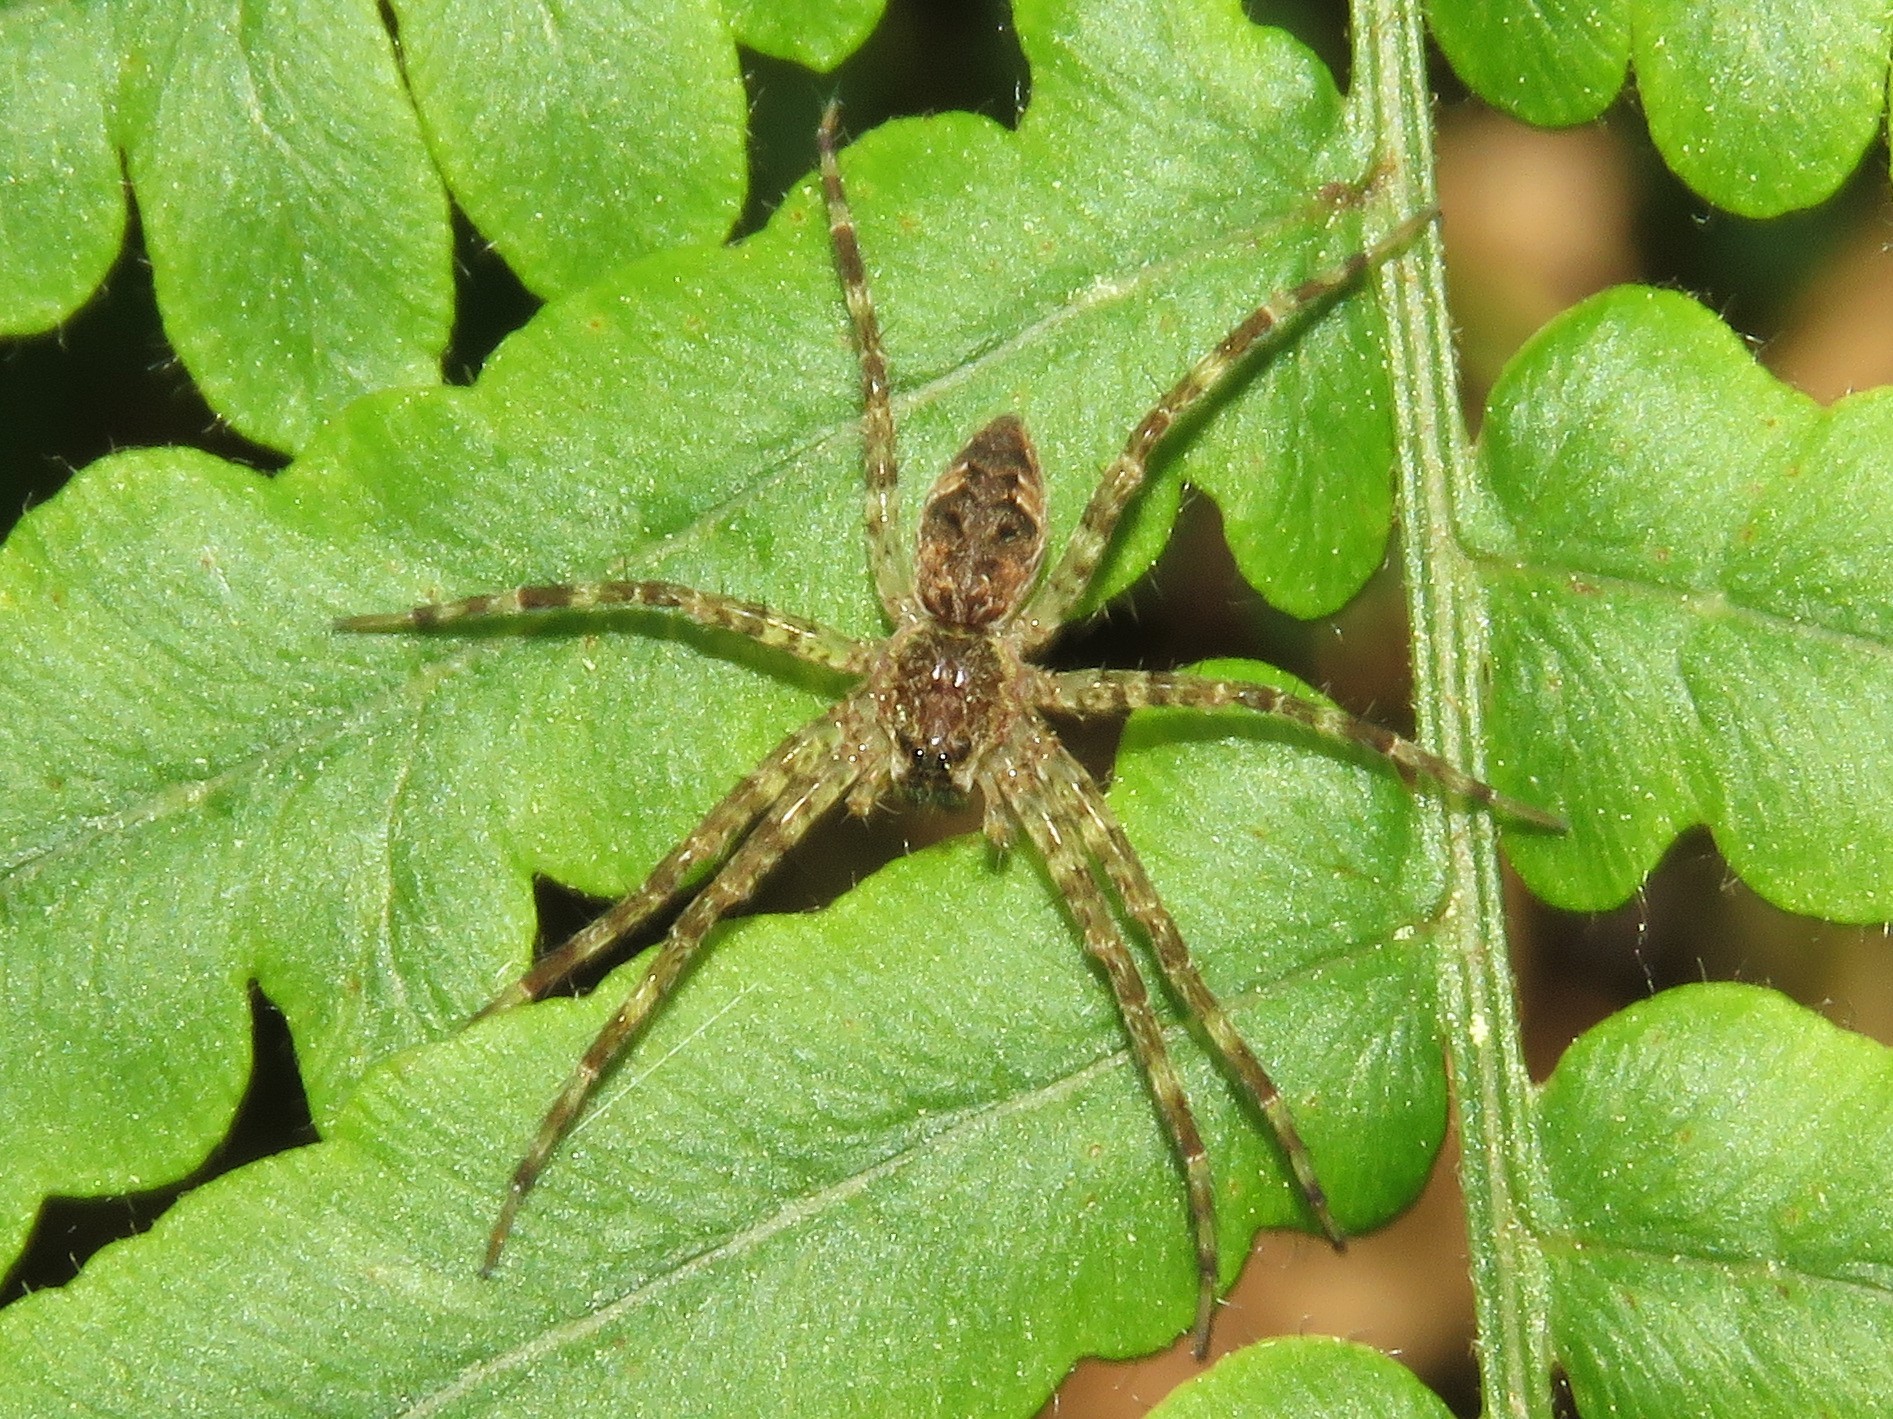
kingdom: Animalia
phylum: Arthropoda
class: Arachnida
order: Araneae
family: Pisauridae
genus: Dolomedes
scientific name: Dolomedes tenebrosus
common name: Dark fishing spider
